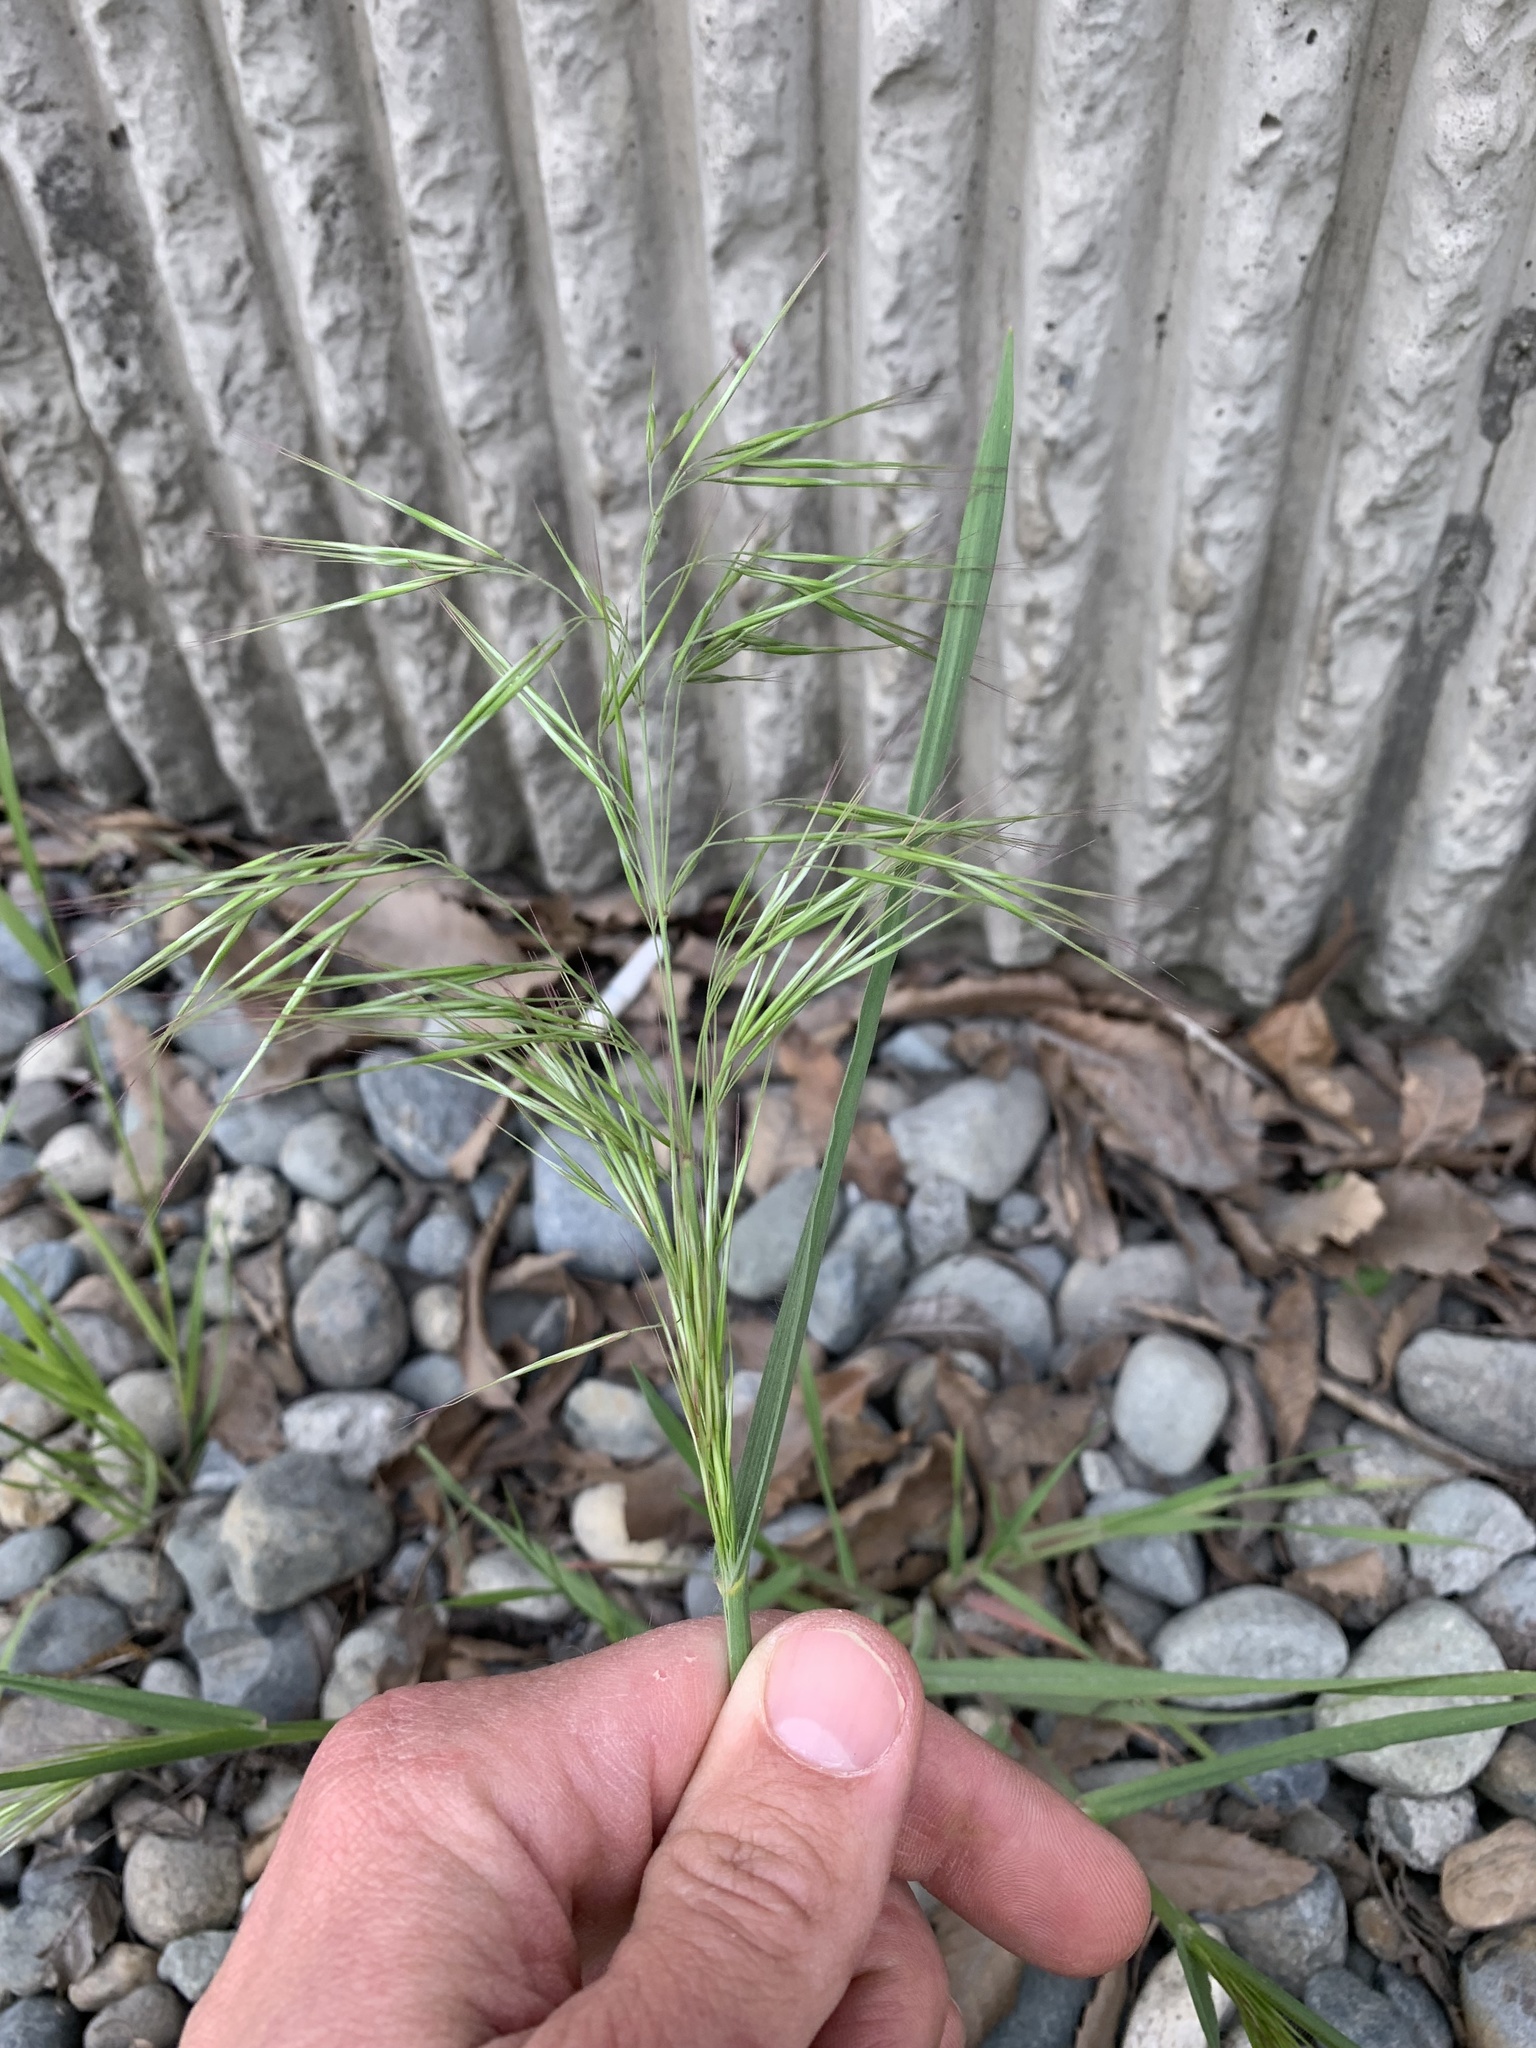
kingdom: Plantae
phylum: Tracheophyta
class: Liliopsida
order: Poales
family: Poaceae
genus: Bromus
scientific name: Bromus tectorum
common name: Cheatgrass
